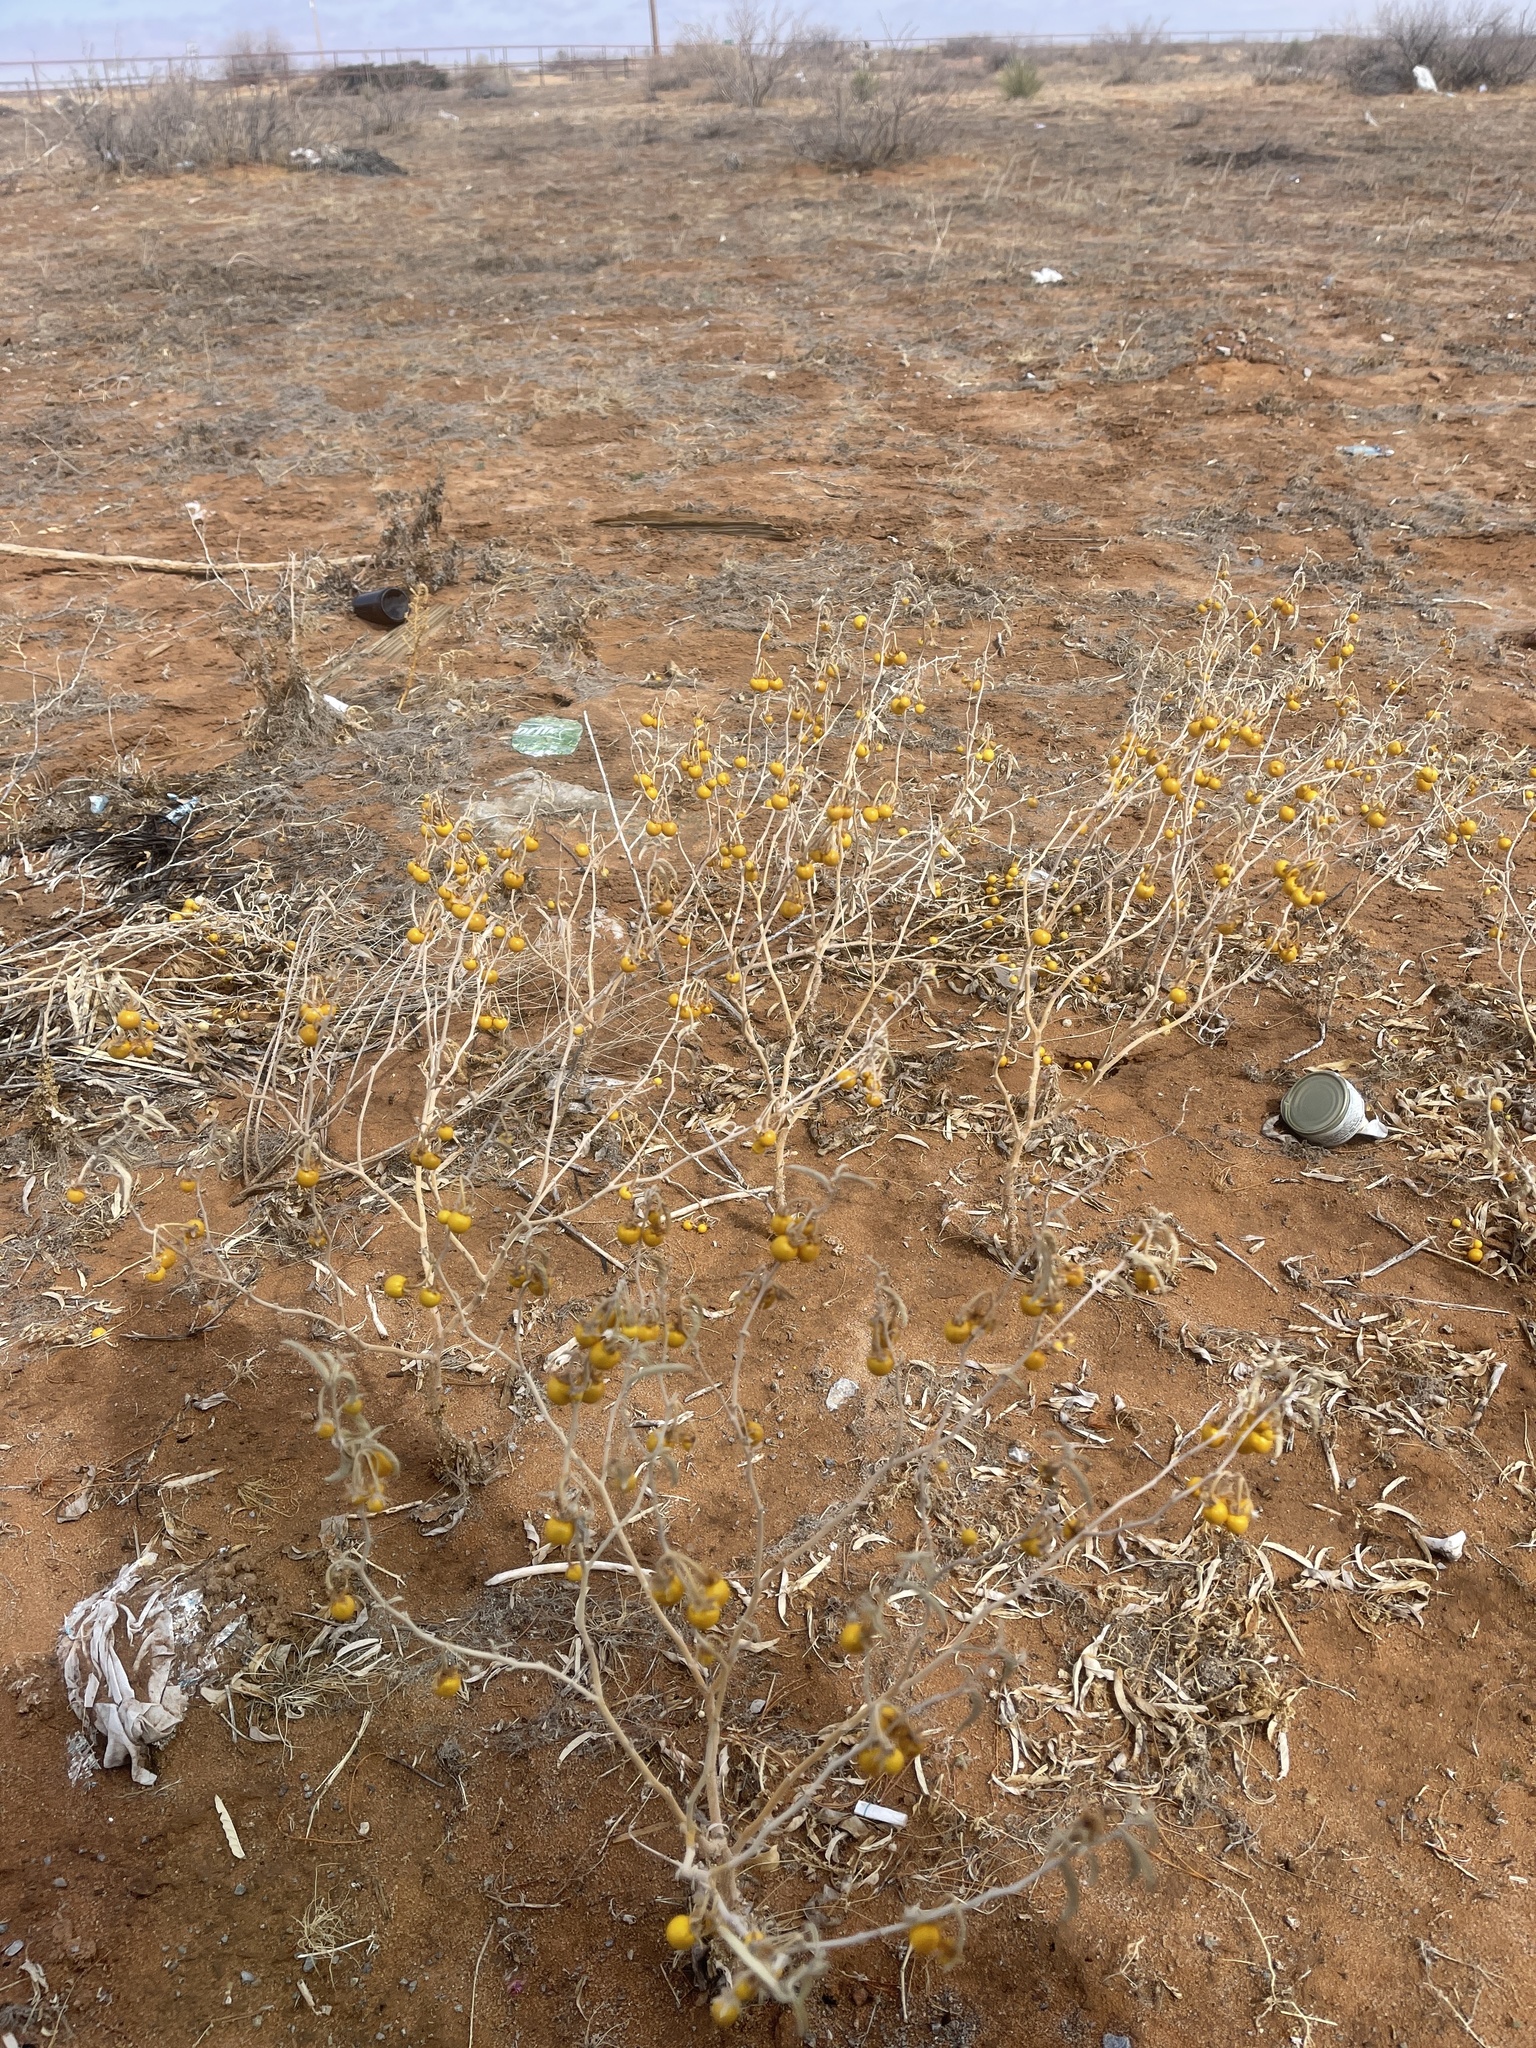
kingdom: Plantae
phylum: Tracheophyta
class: Magnoliopsida
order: Solanales
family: Solanaceae
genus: Solanum
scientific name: Solanum elaeagnifolium
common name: Silverleaf nightshade
